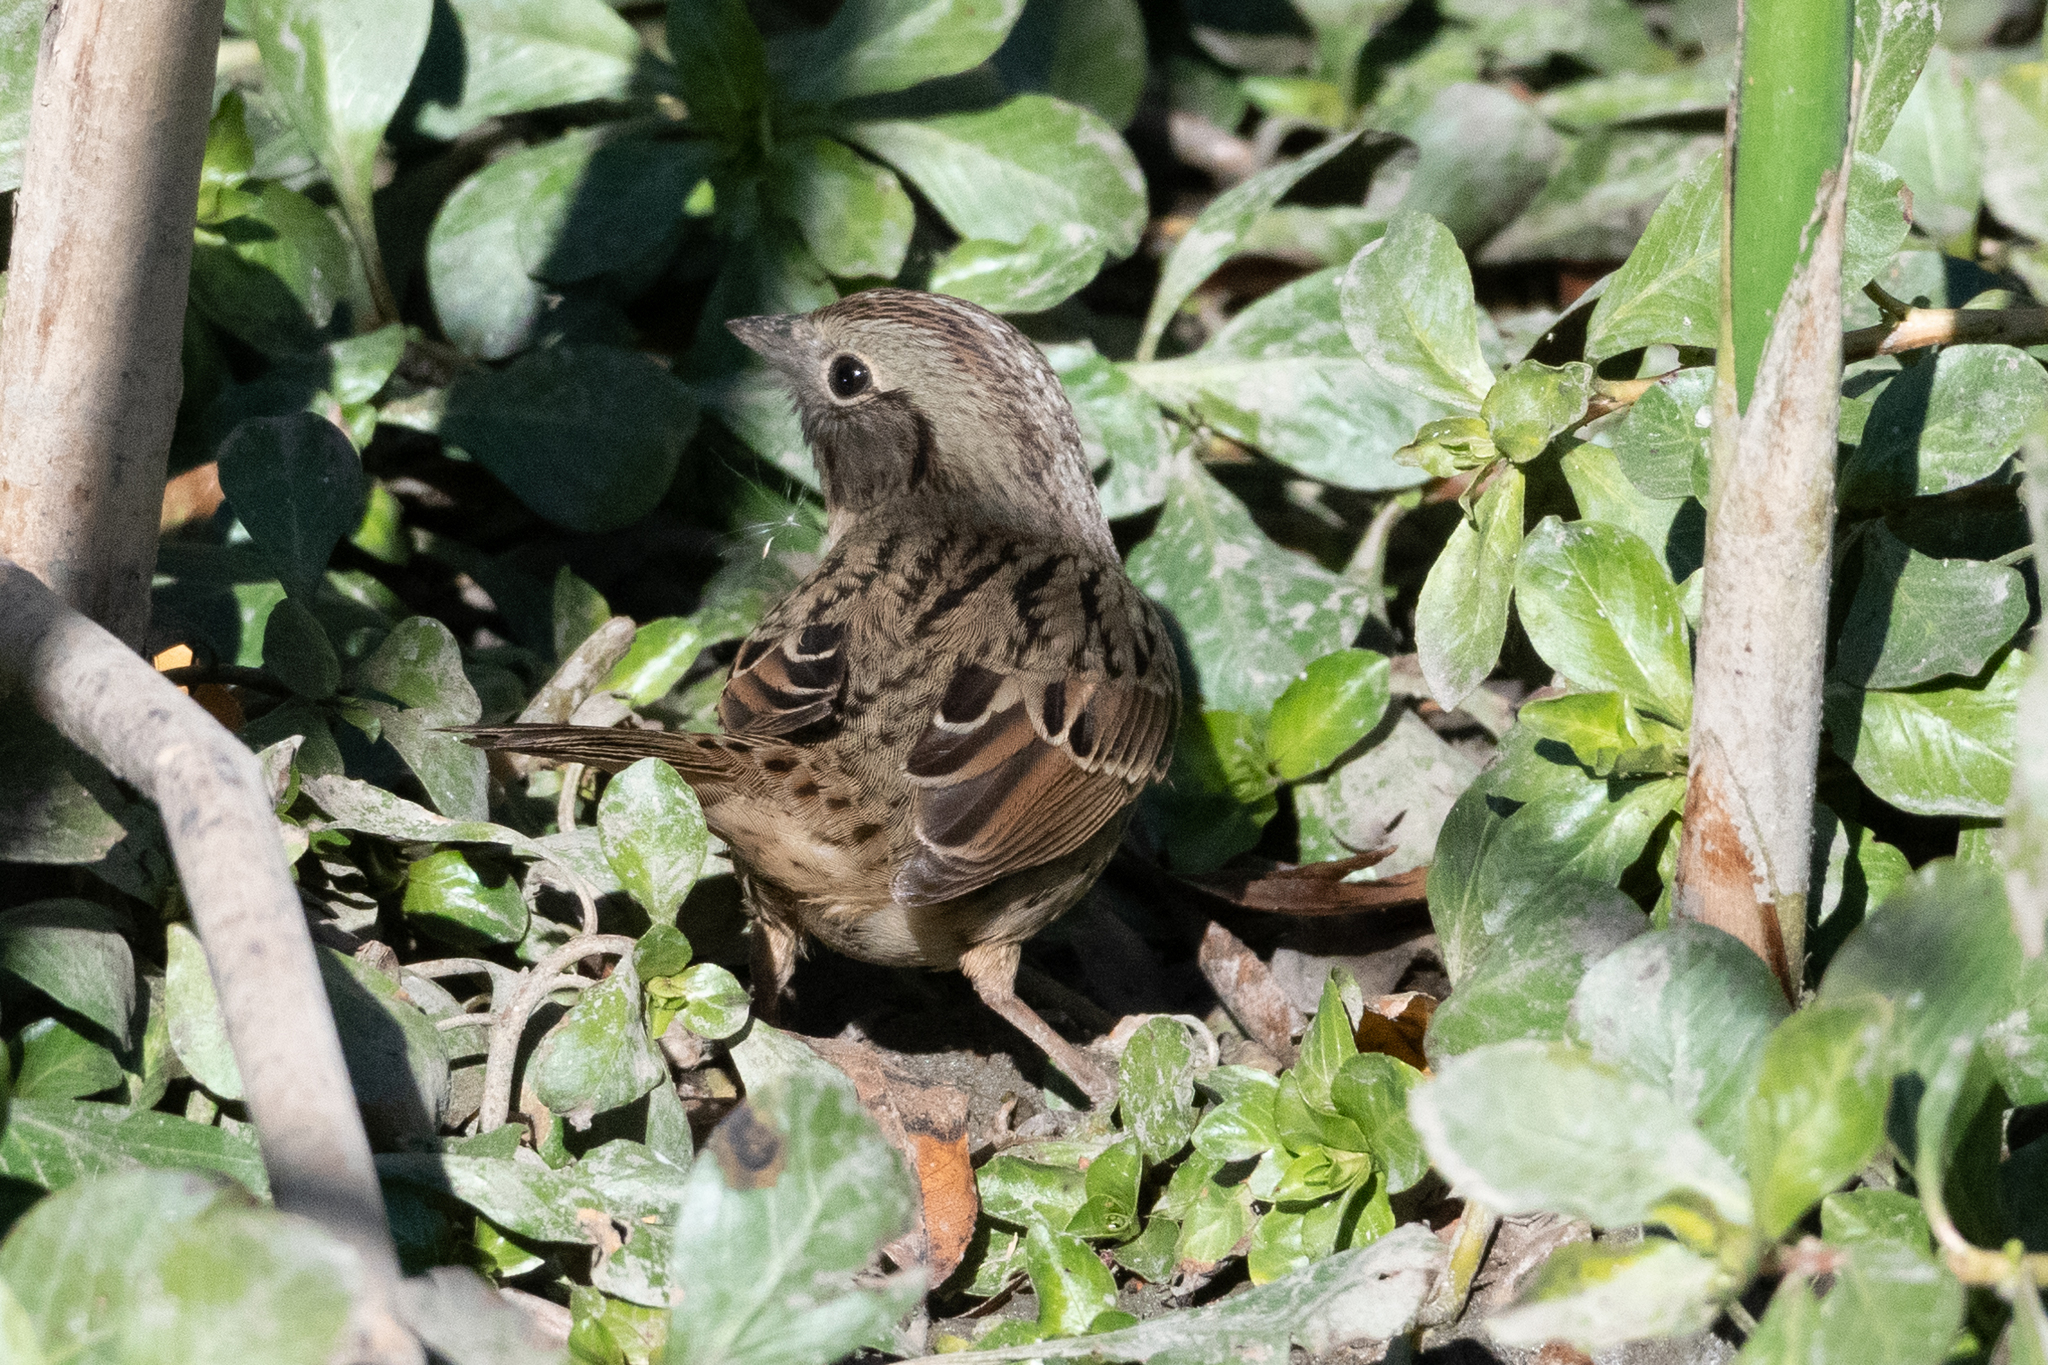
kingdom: Animalia
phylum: Chordata
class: Aves
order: Passeriformes
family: Passerellidae
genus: Melospiza
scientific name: Melospiza lincolnii
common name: Lincoln's sparrow
